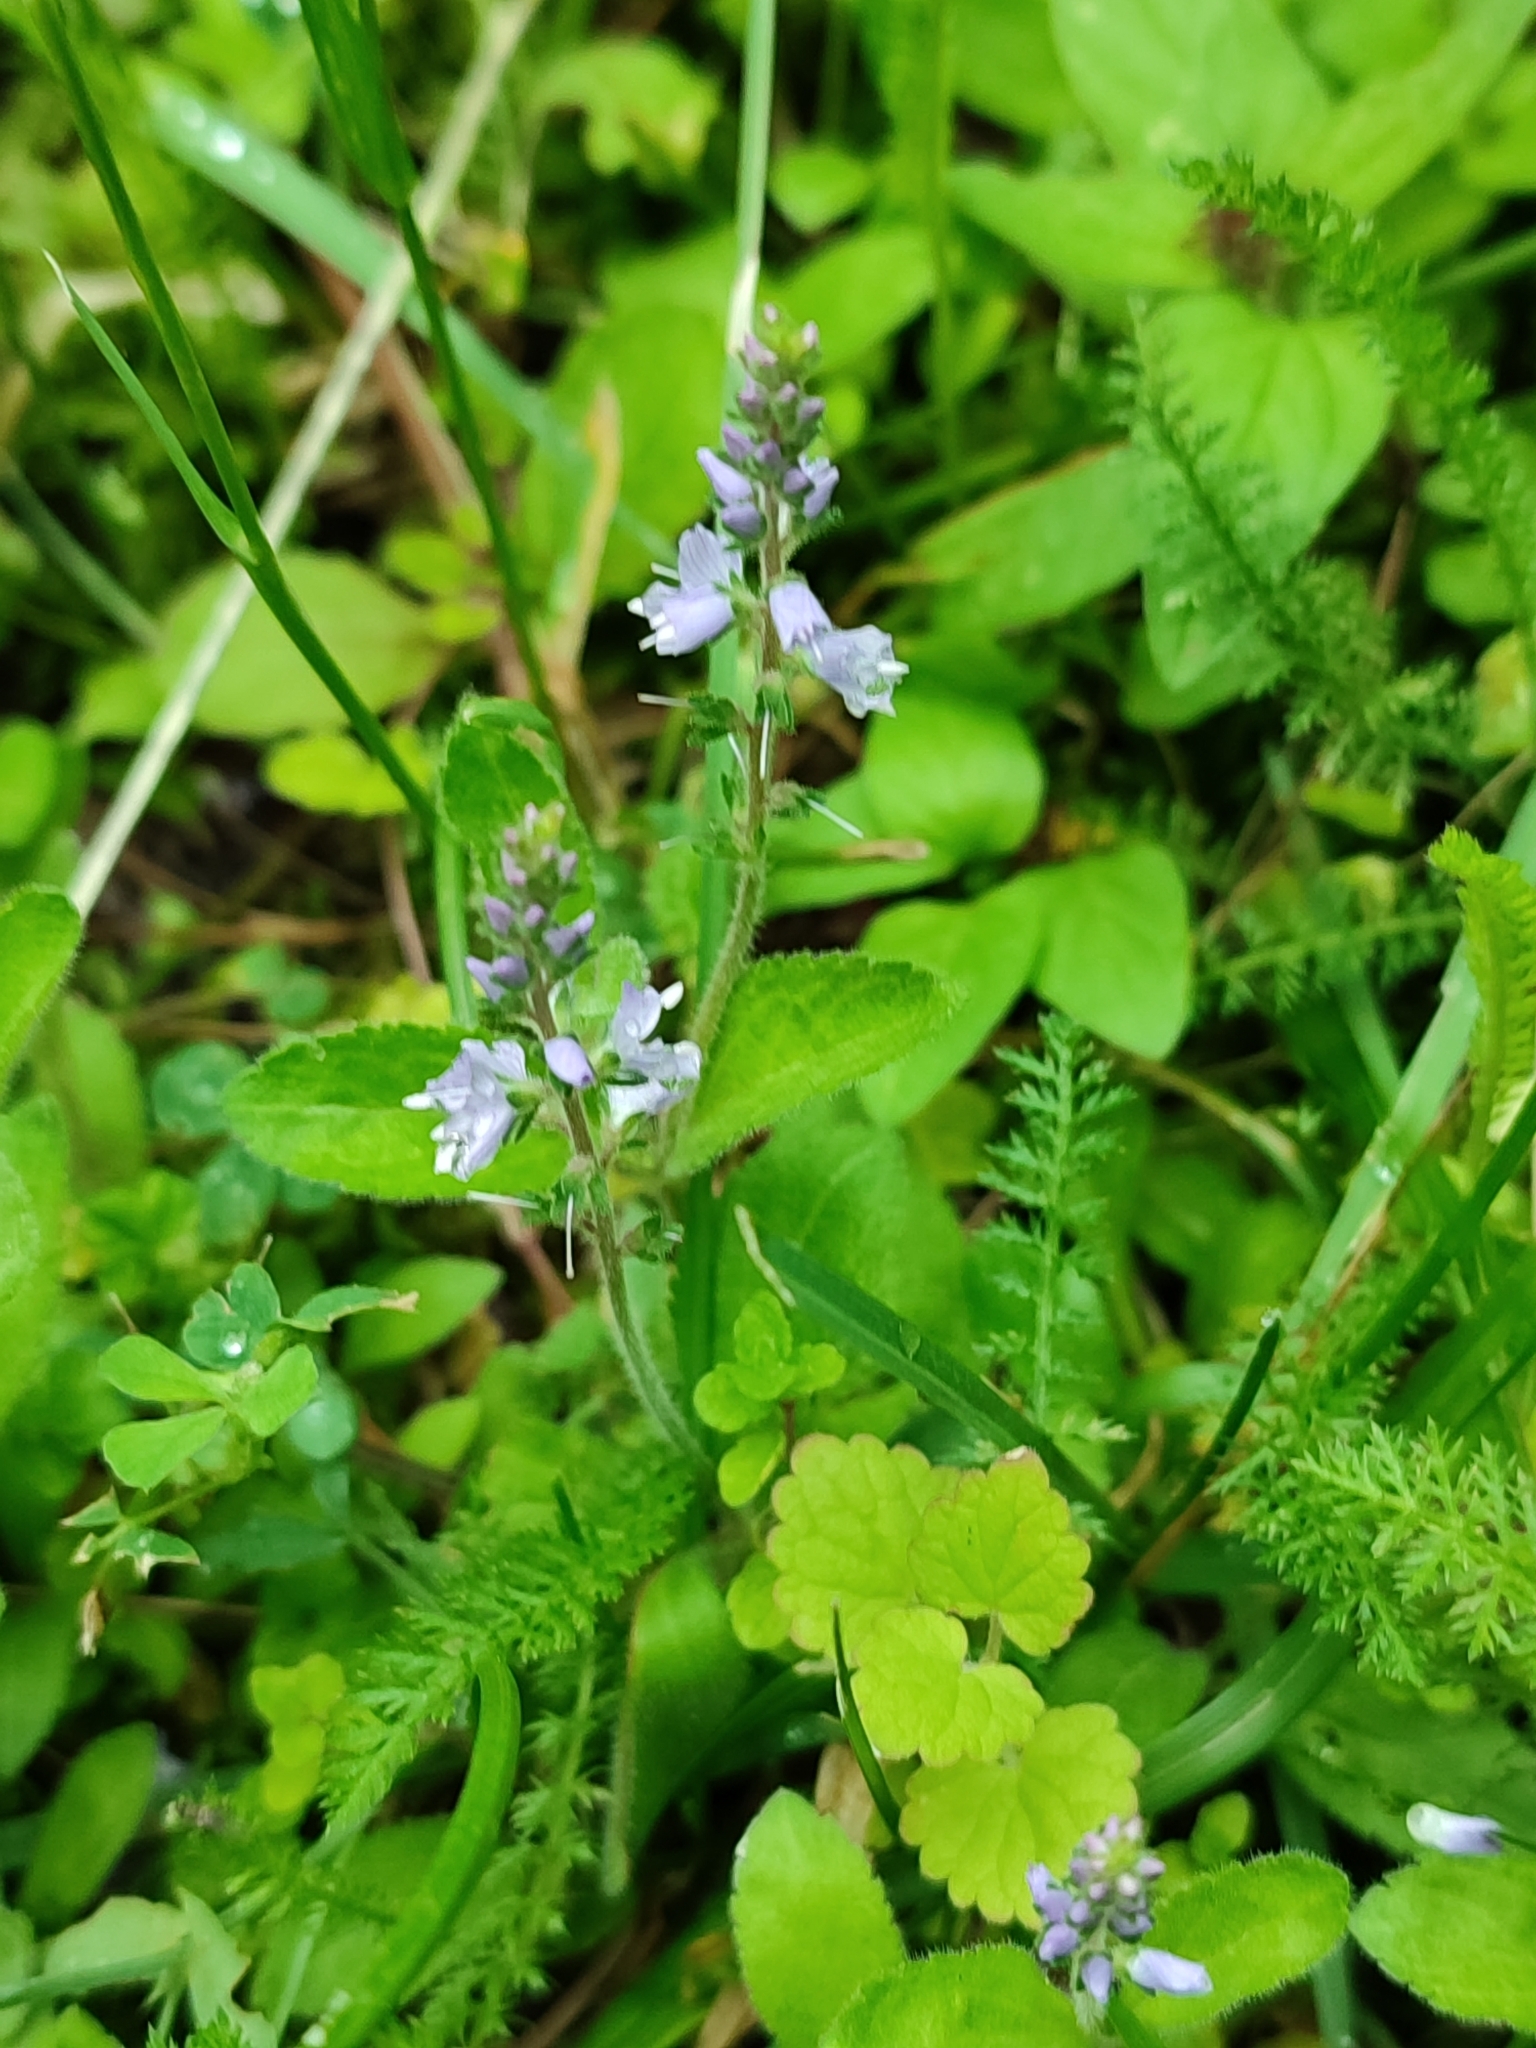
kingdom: Plantae
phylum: Tracheophyta
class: Magnoliopsida
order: Lamiales
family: Plantaginaceae
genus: Veronica
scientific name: Veronica officinalis
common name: Common speedwell
